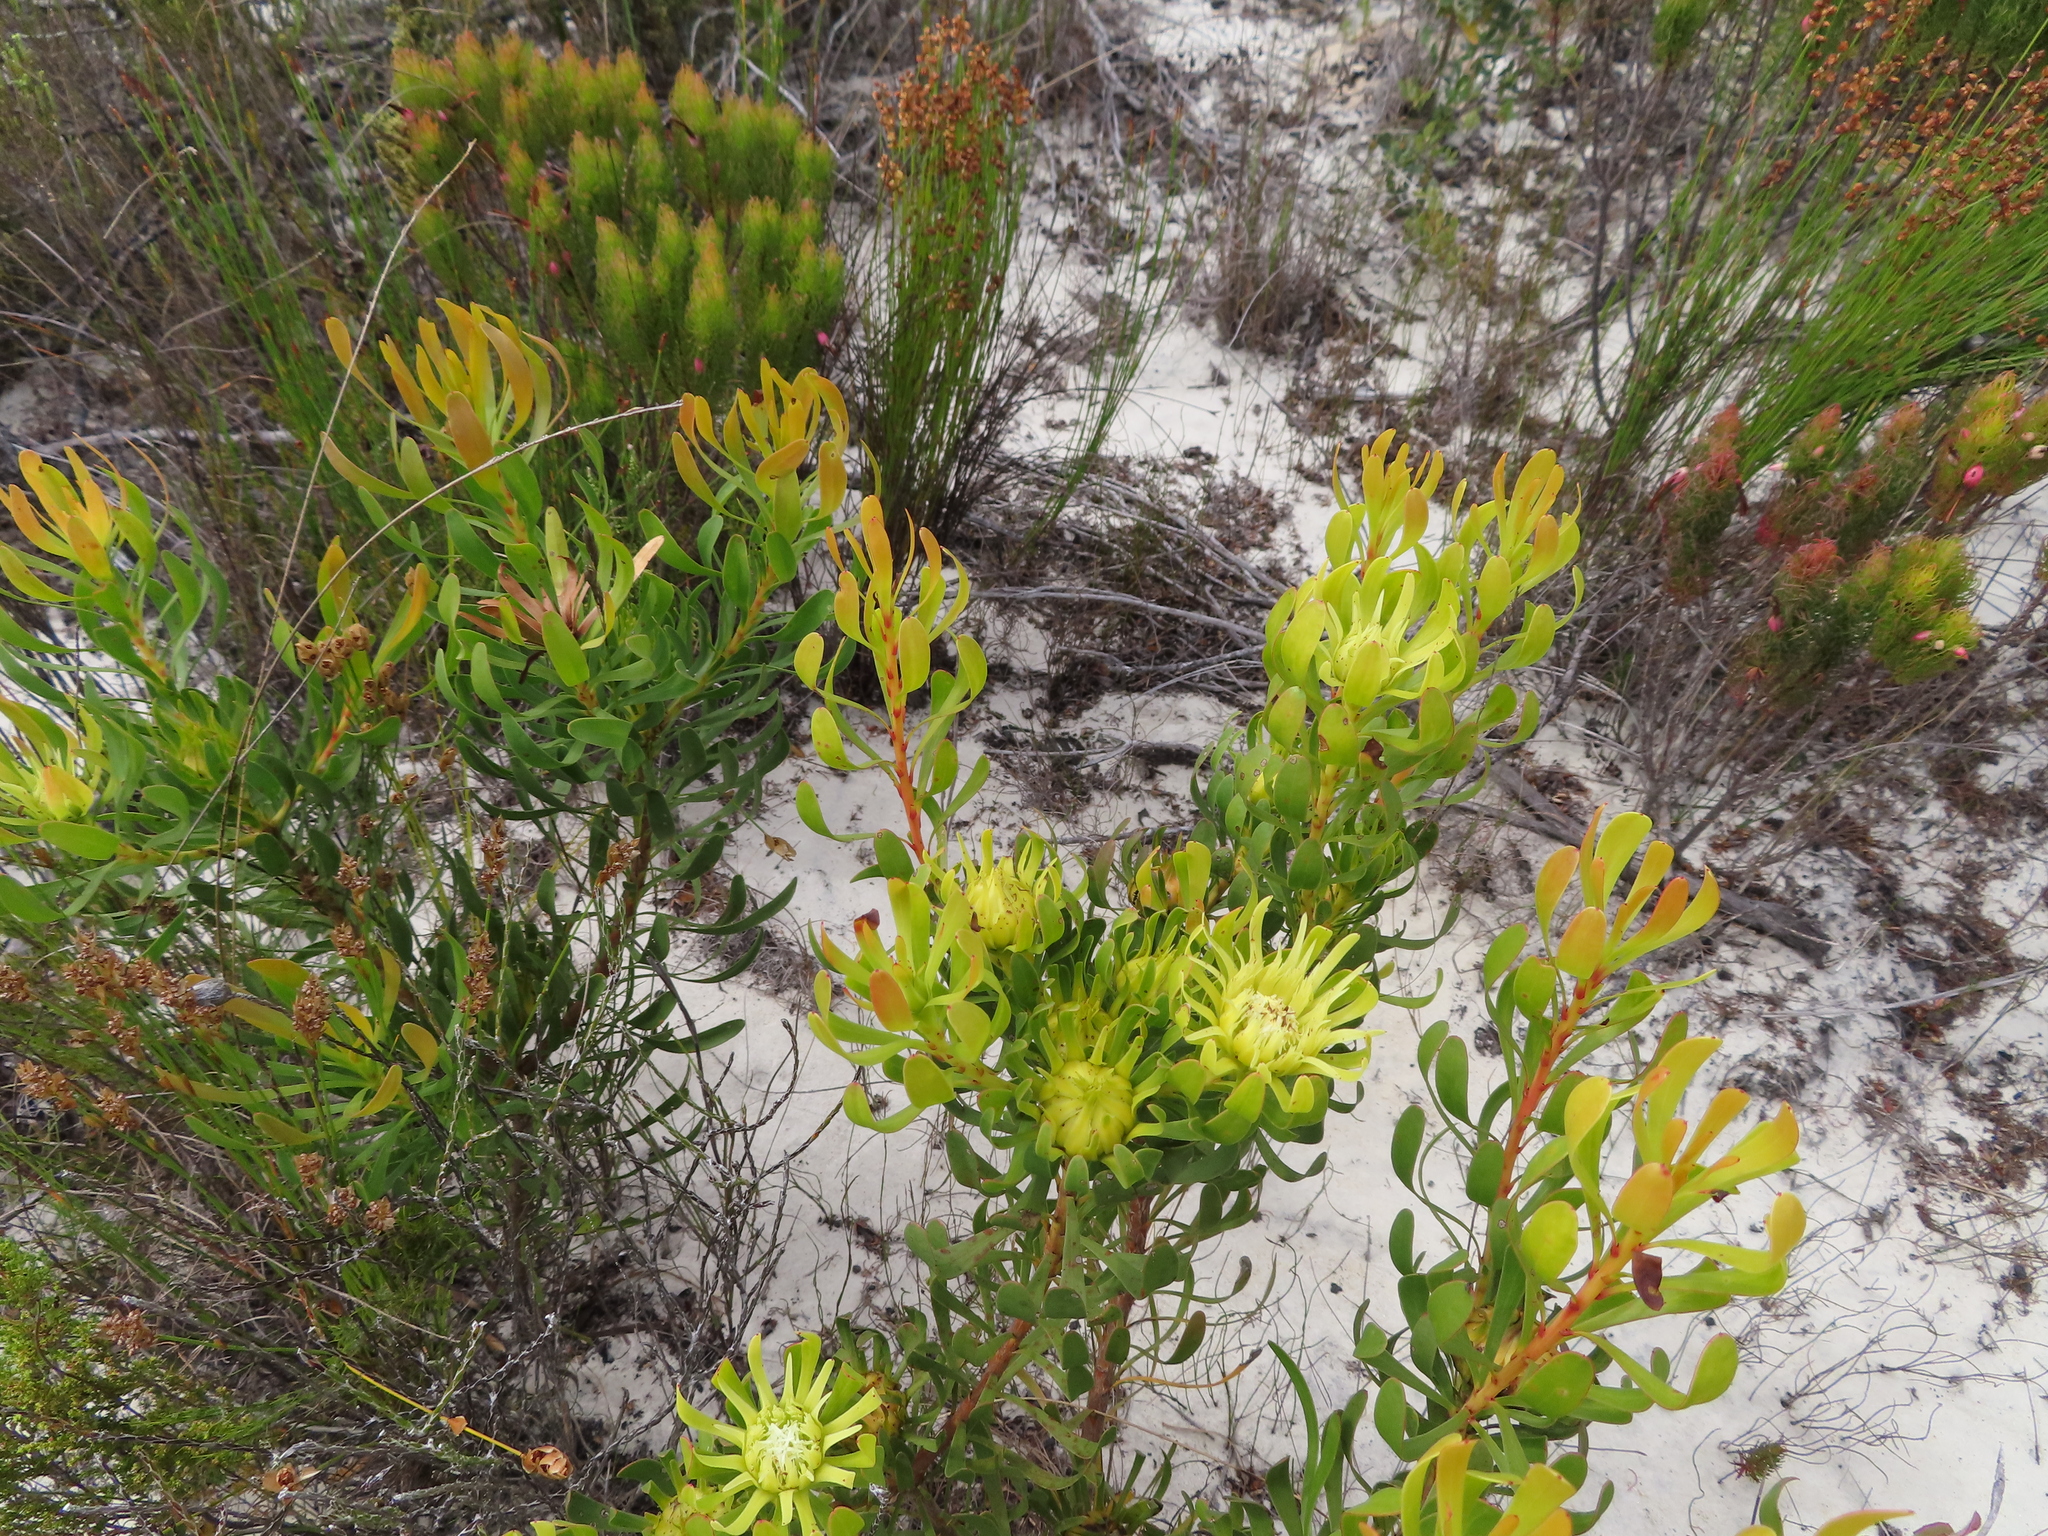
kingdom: Plantae
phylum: Tracheophyta
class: Magnoliopsida
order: Proteales
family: Proteaceae
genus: Aulax
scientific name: Aulax umbellata
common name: Broad-leaf featherbush
